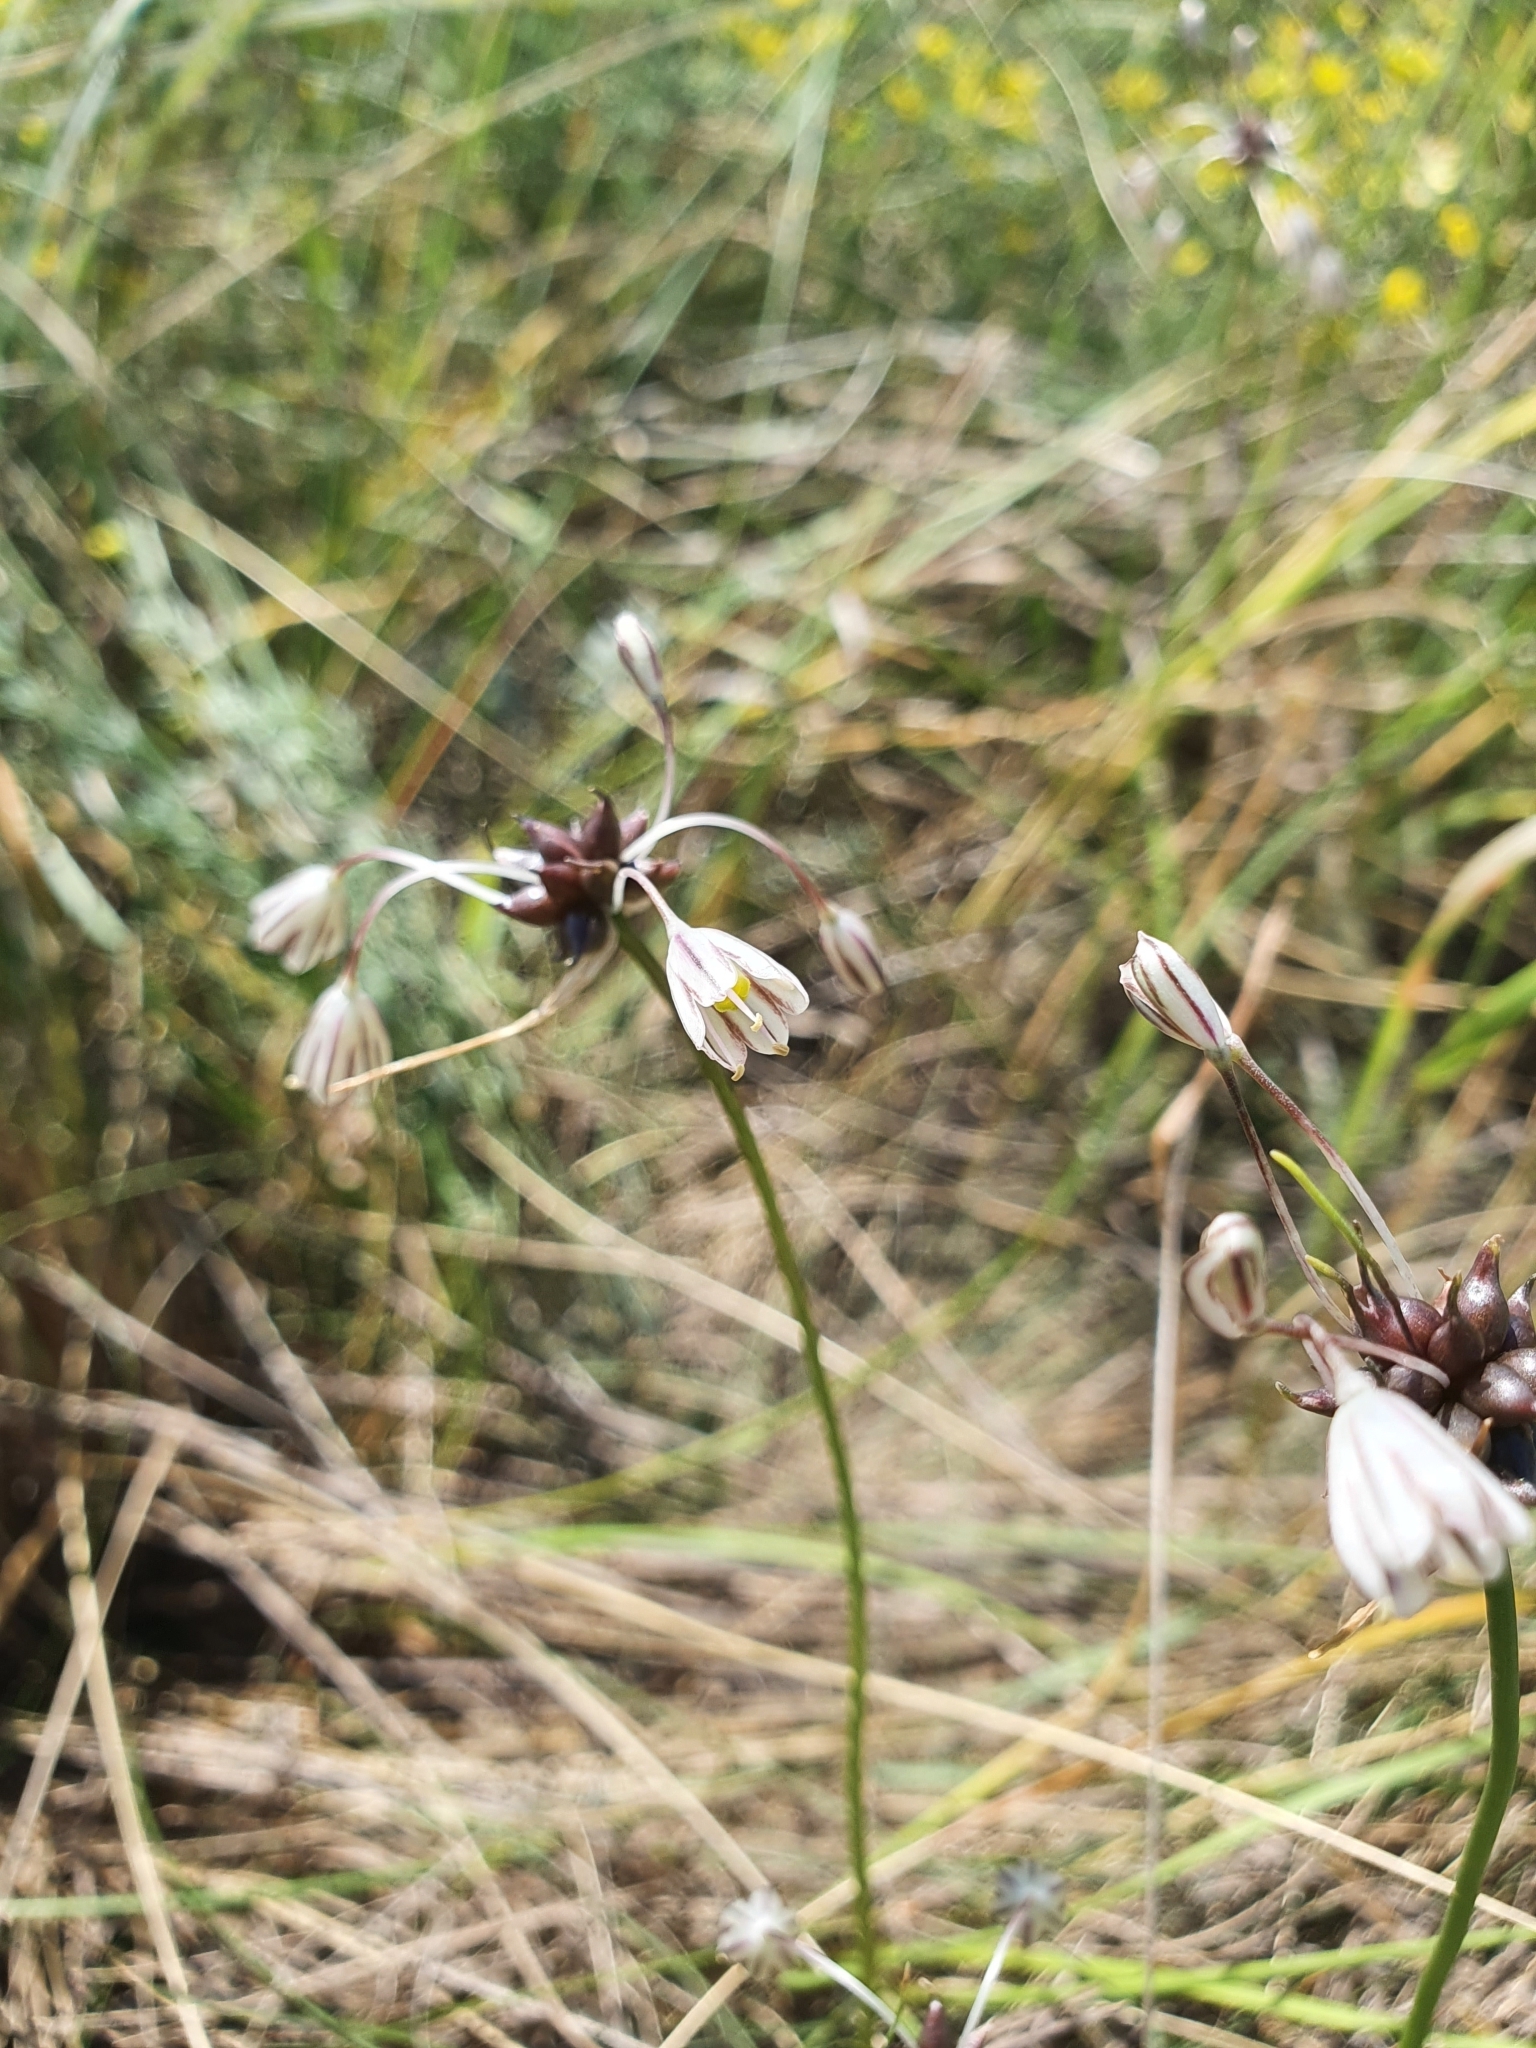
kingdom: Plantae
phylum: Tracheophyta
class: Liliopsida
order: Asparagales
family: Amaryllidaceae
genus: Allium
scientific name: Allium oleraceum
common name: Field garlic
